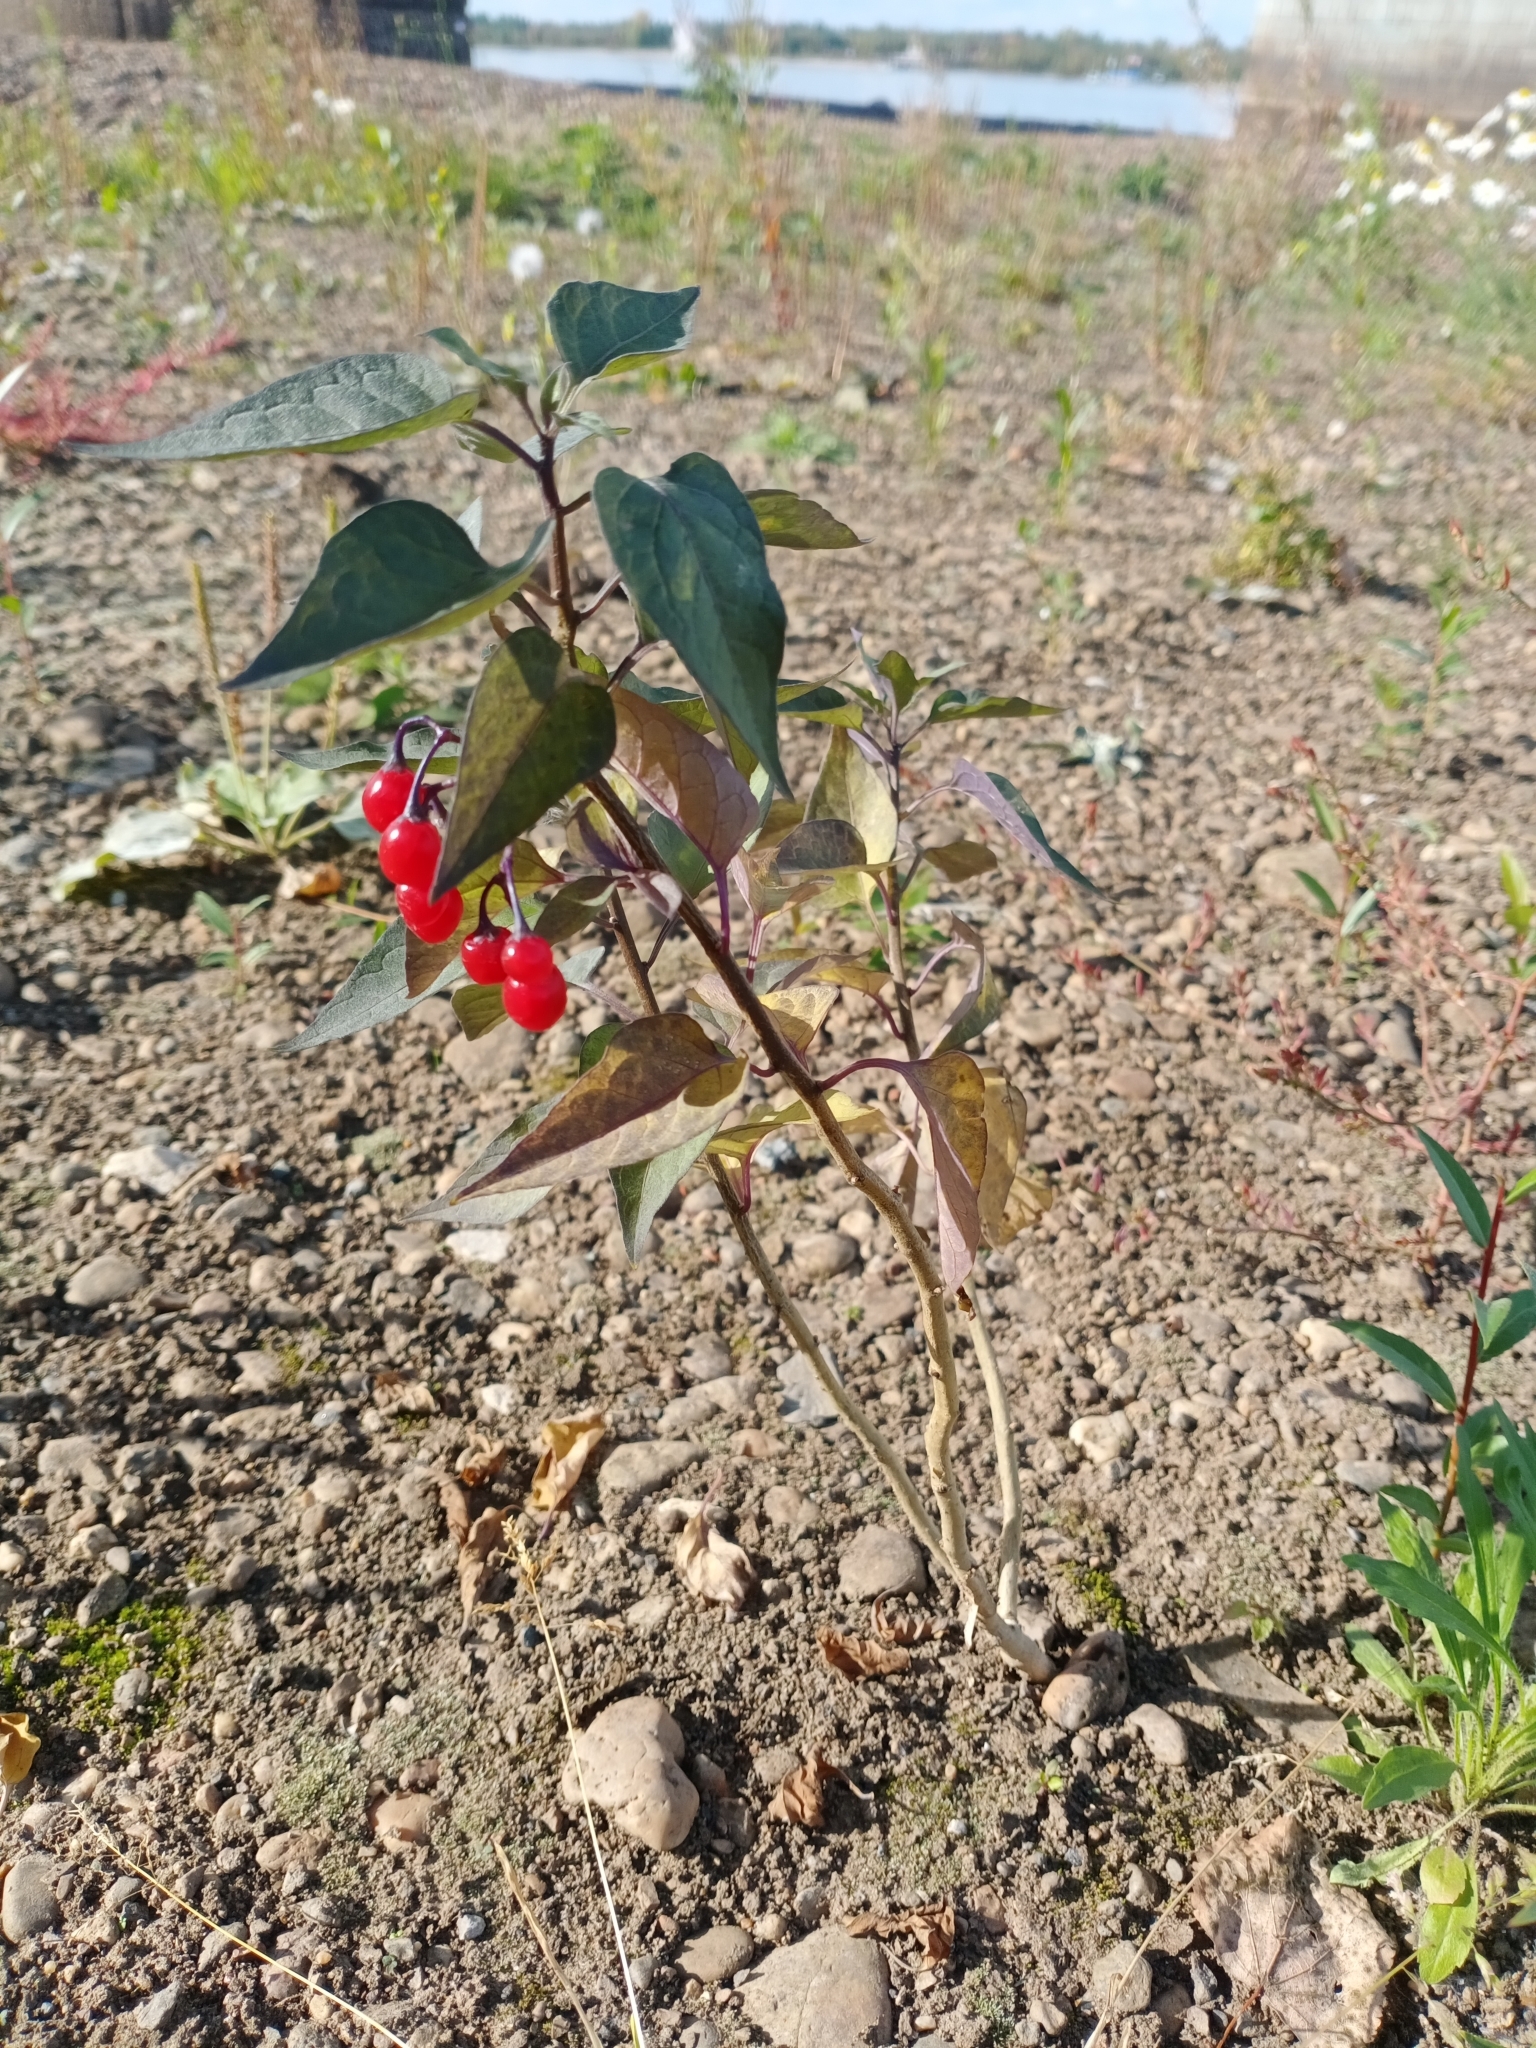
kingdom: Plantae
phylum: Tracheophyta
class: Magnoliopsida
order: Solanales
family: Solanaceae
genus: Solanum
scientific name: Solanum dulcamara
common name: Climbing nightshade
